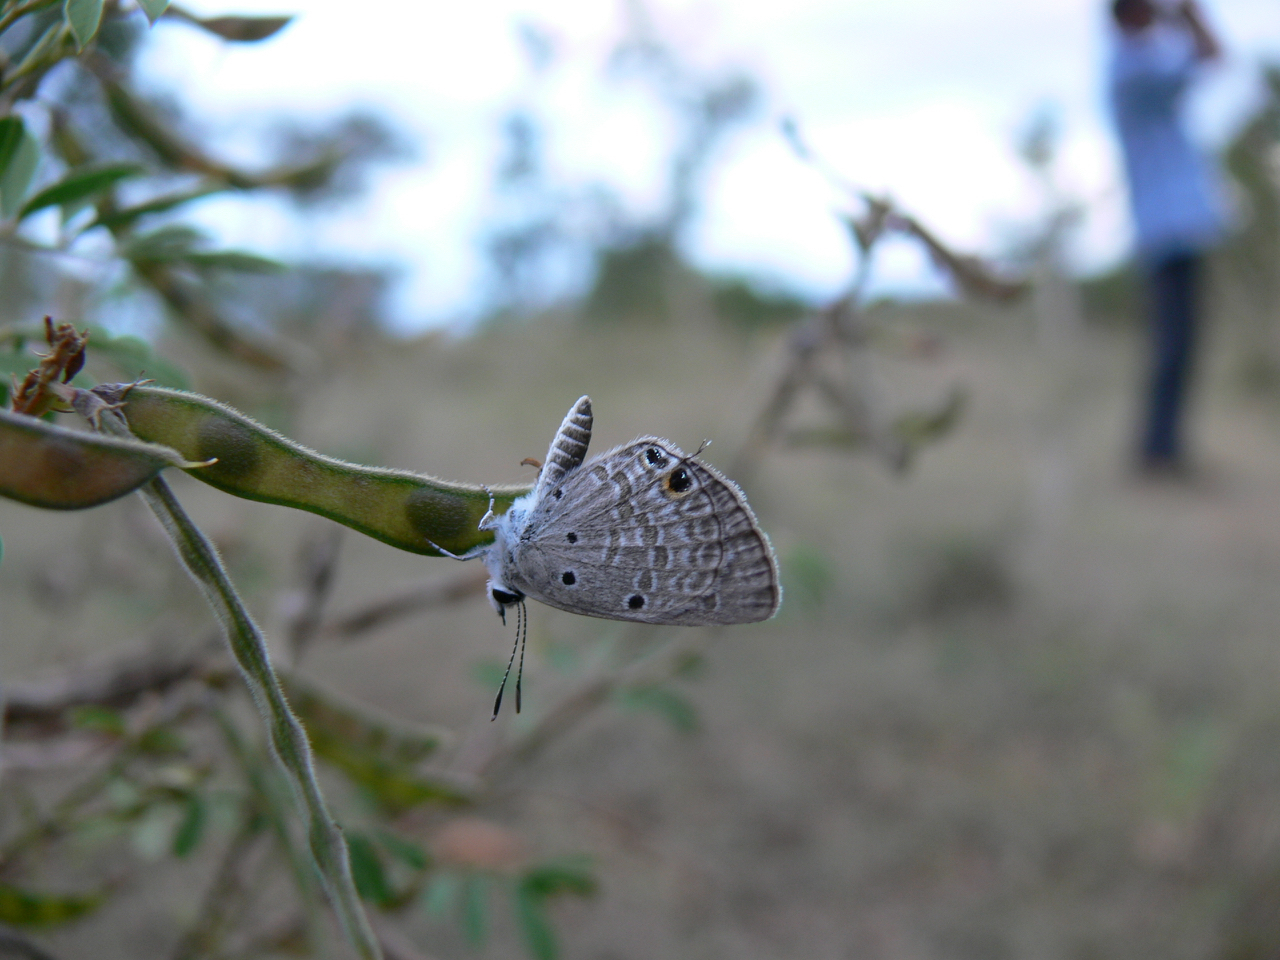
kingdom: Animalia
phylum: Arthropoda
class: Insecta
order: Lepidoptera
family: Lycaenidae
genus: Chilades
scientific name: Chilades parrhasius
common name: Small cupid
